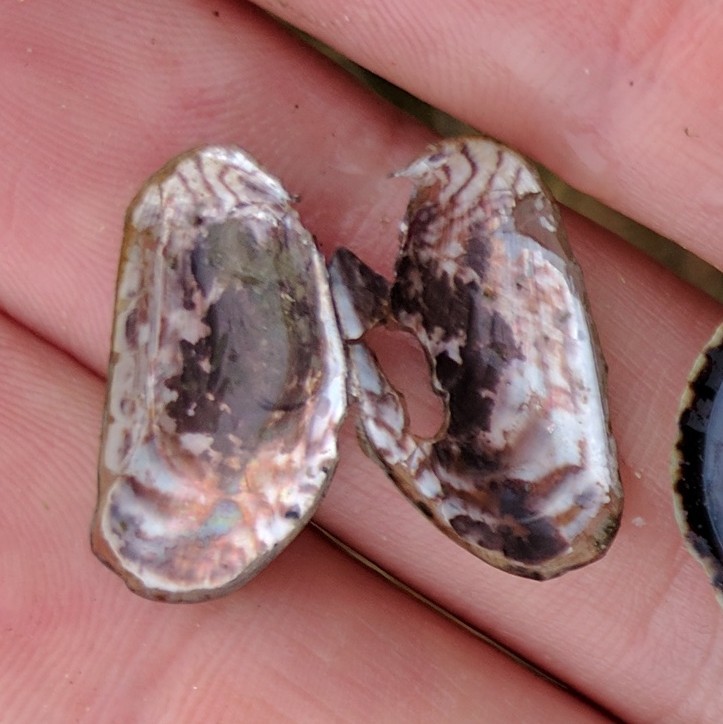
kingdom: Animalia
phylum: Mollusca
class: Bivalvia
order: Mytilida
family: Mytilidae
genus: Arcuatula
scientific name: Arcuatula senhousia
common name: Asian mussel
